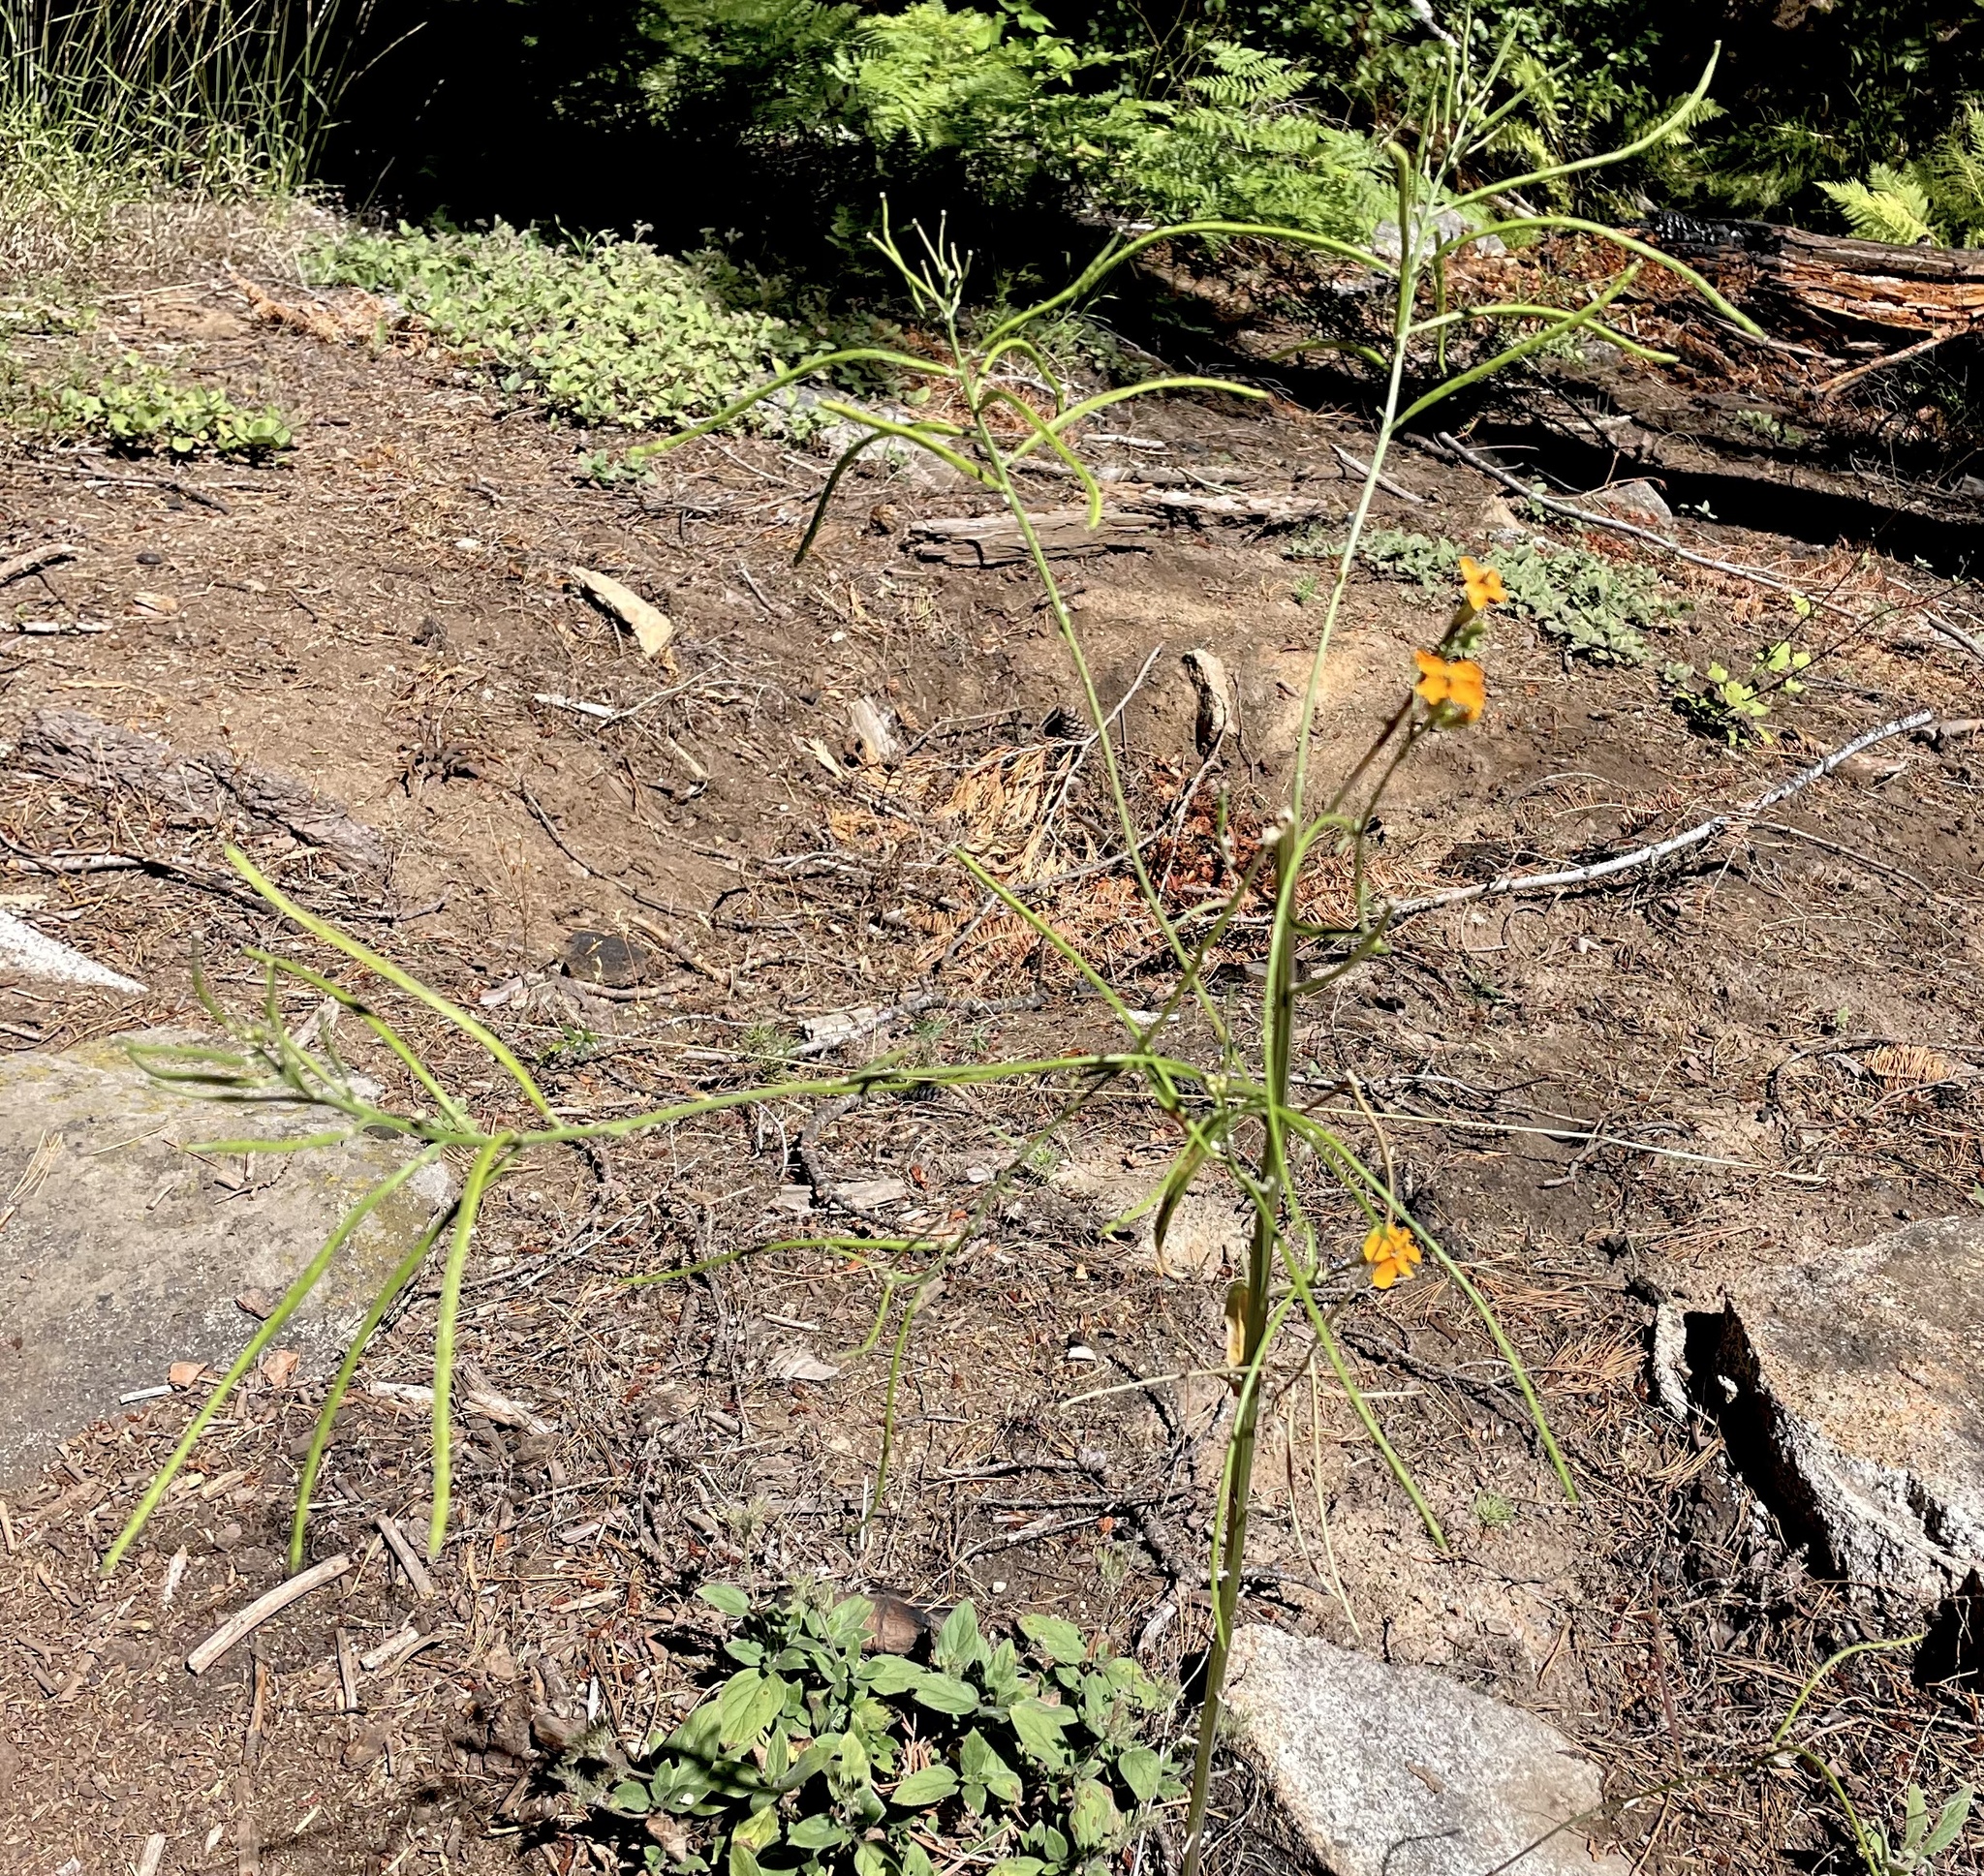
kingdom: Plantae
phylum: Tracheophyta
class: Magnoliopsida
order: Brassicales
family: Brassicaceae
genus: Erysimum
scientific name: Erysimum capitatum
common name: Western wallflower
